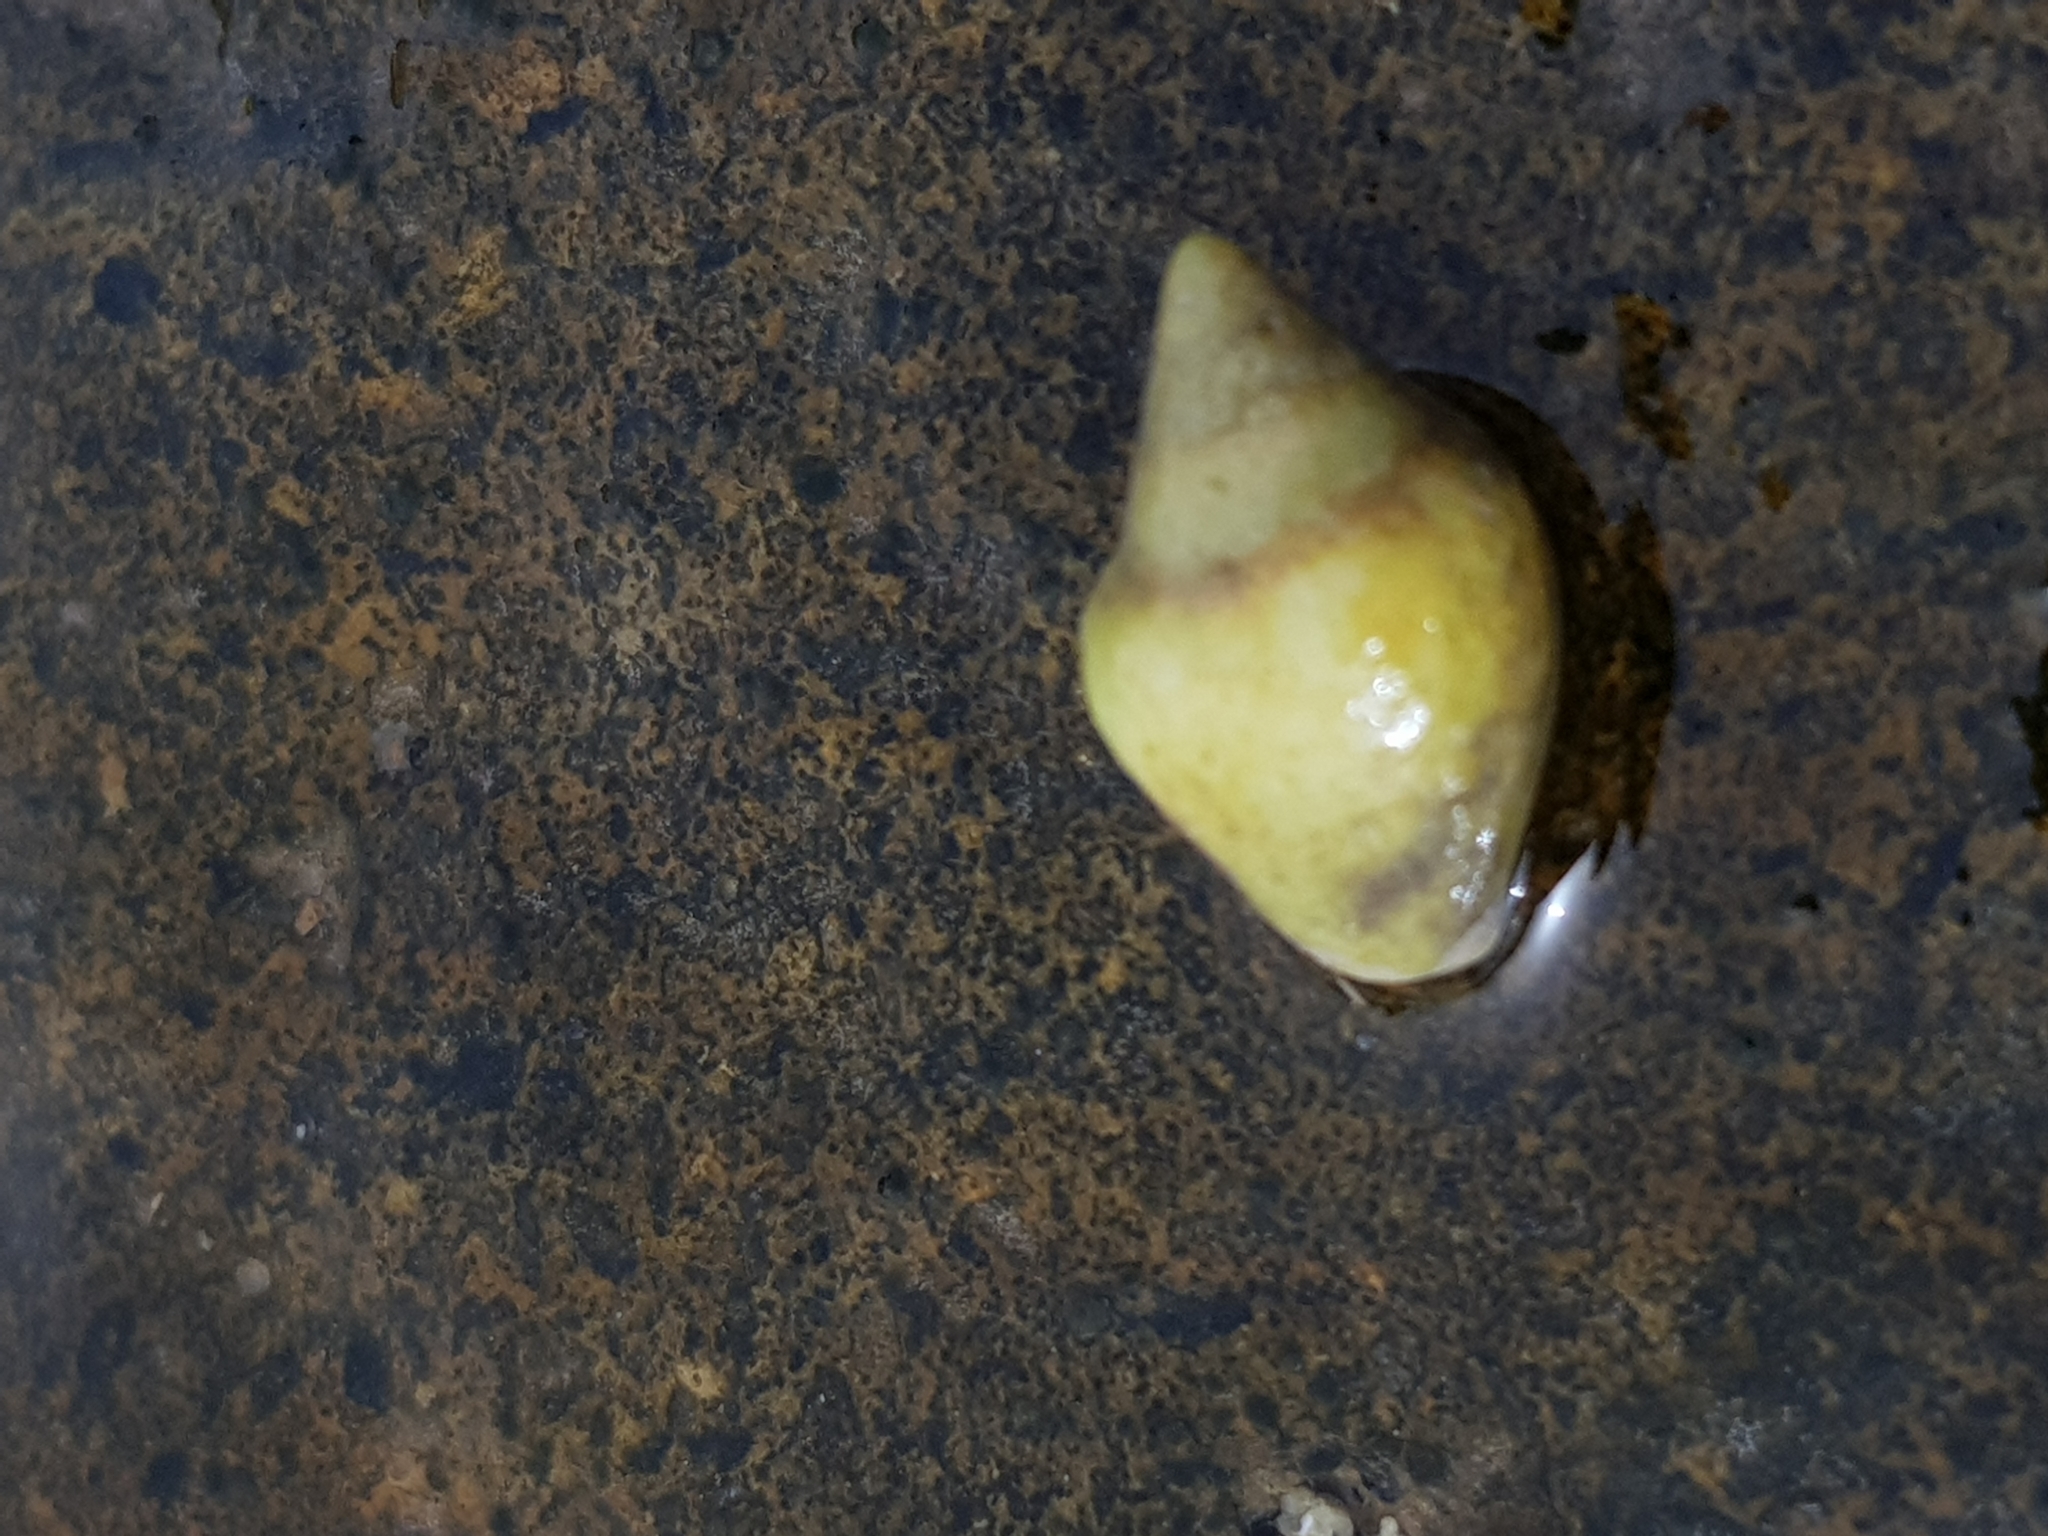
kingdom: Animalia
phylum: Mollusca
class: Gastropoda
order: Neogastropoda
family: Columbellidae
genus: Columbella
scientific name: Columbella rustica
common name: Rustic dove shell
